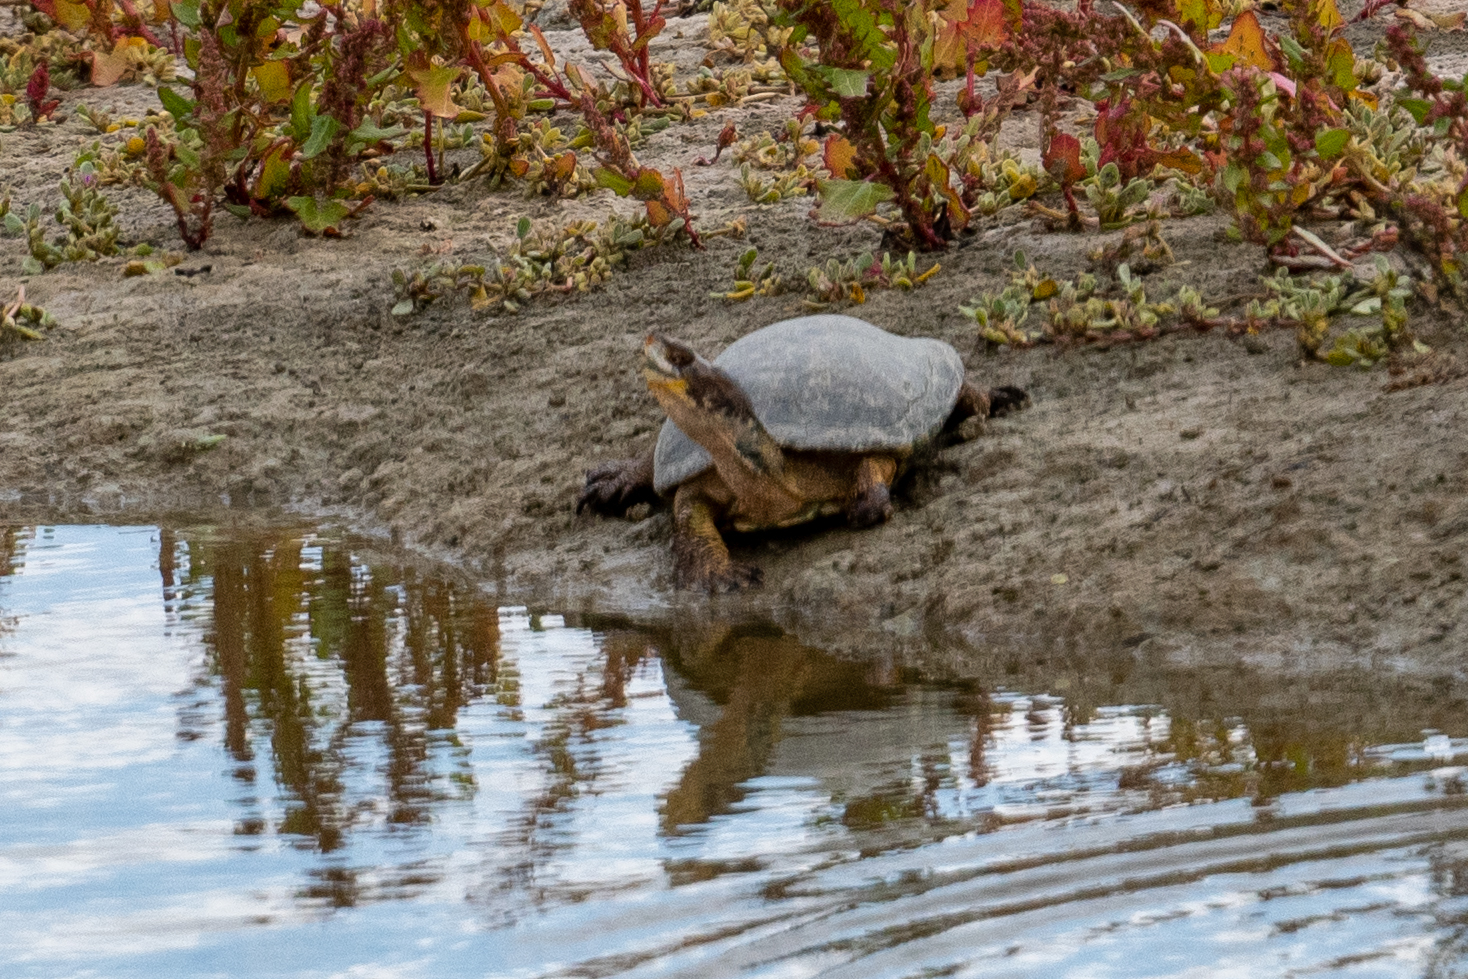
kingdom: Animalia
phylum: Chordata
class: Testudines
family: Emydidae
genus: Actinemys
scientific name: Actinemys marmorata
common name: Western pond turtle
